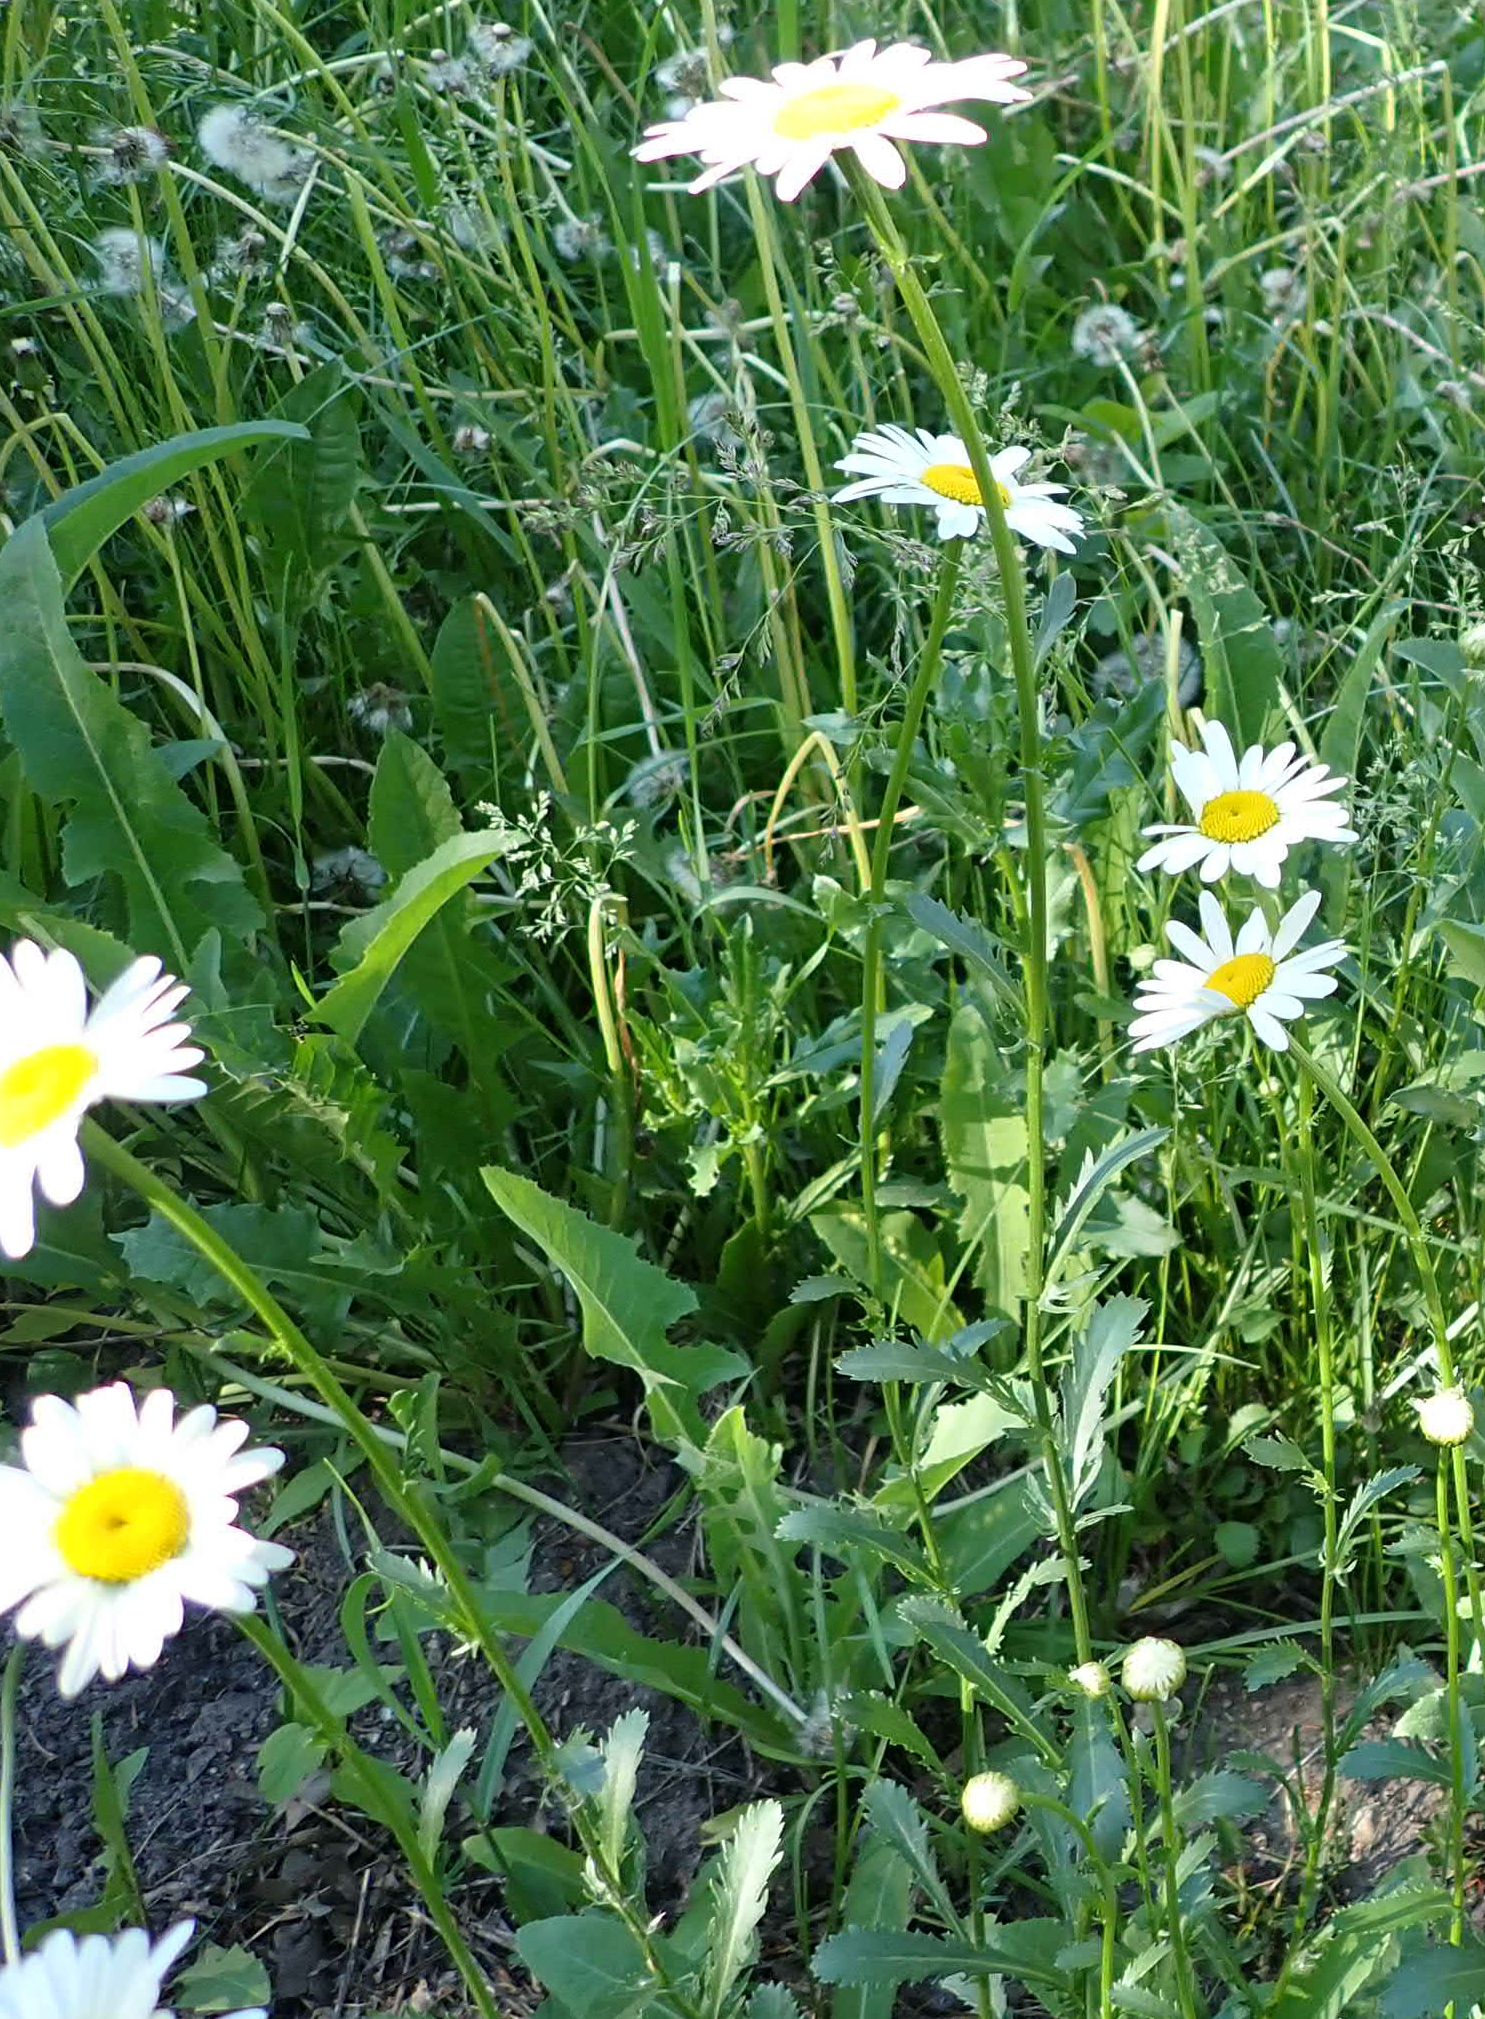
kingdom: Plantae
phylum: Tracheophyta
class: Magnoliopsida
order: Asterales
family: Asteraceae
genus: Leucanthemum
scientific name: Leucanthemum vulgare
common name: Oxeye daisy
